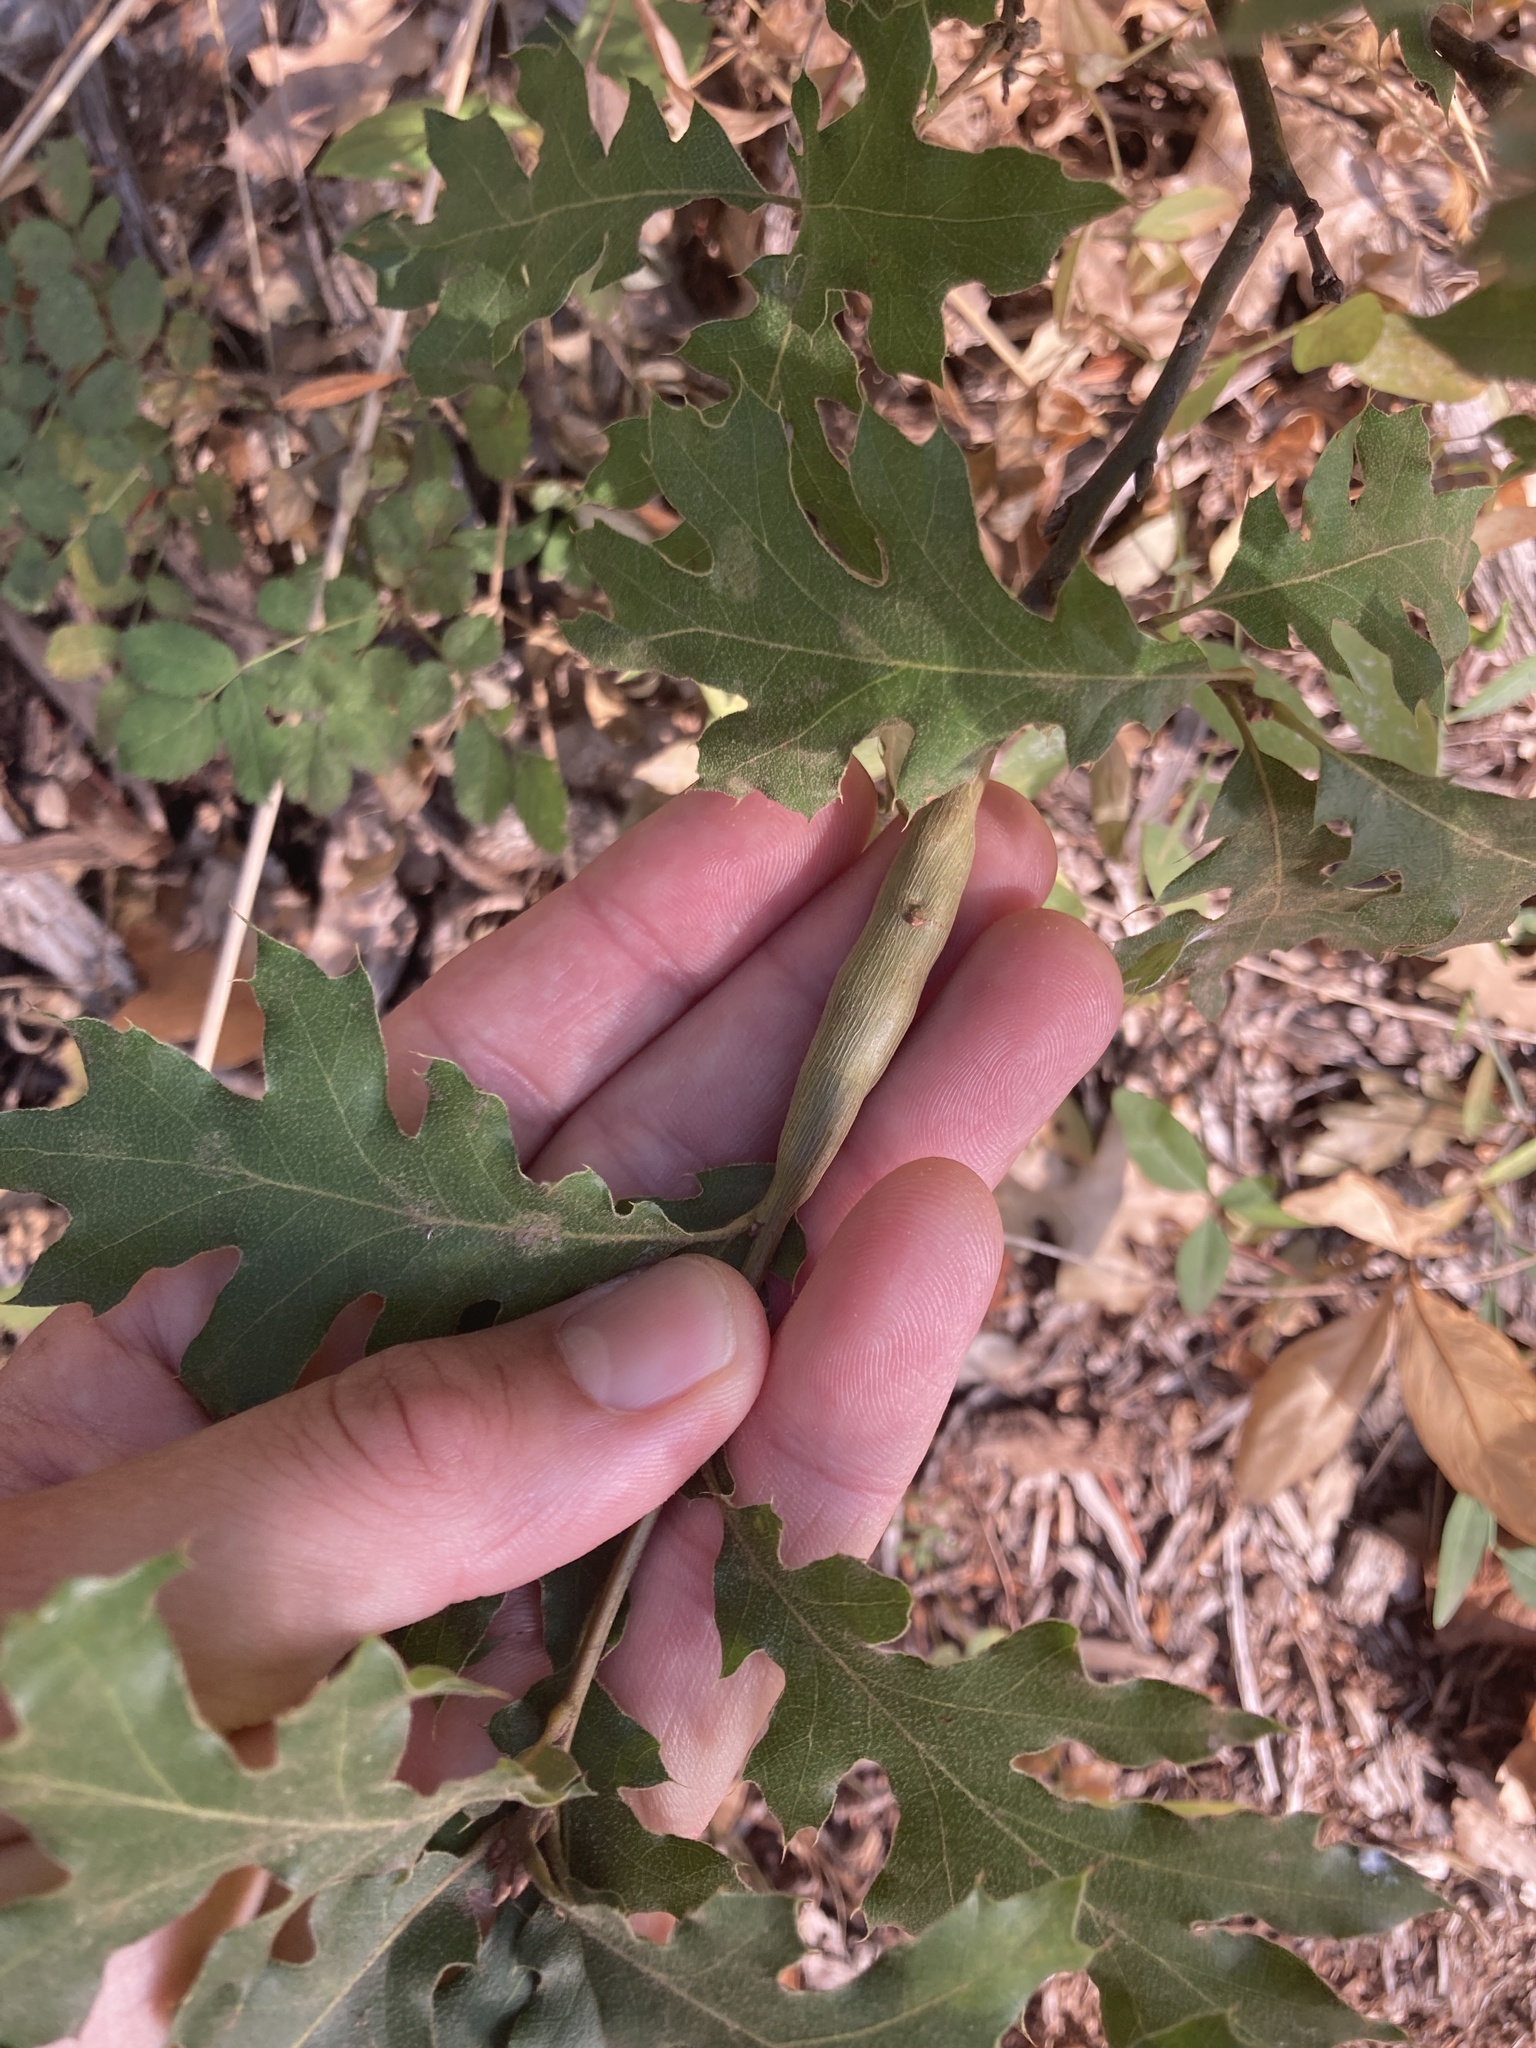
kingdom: Plantae
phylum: Tracheophyta
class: Magnoliopsida
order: Fagales
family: Fagaceae
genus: Quercus
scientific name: Quercus kelloggii
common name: California black oak
